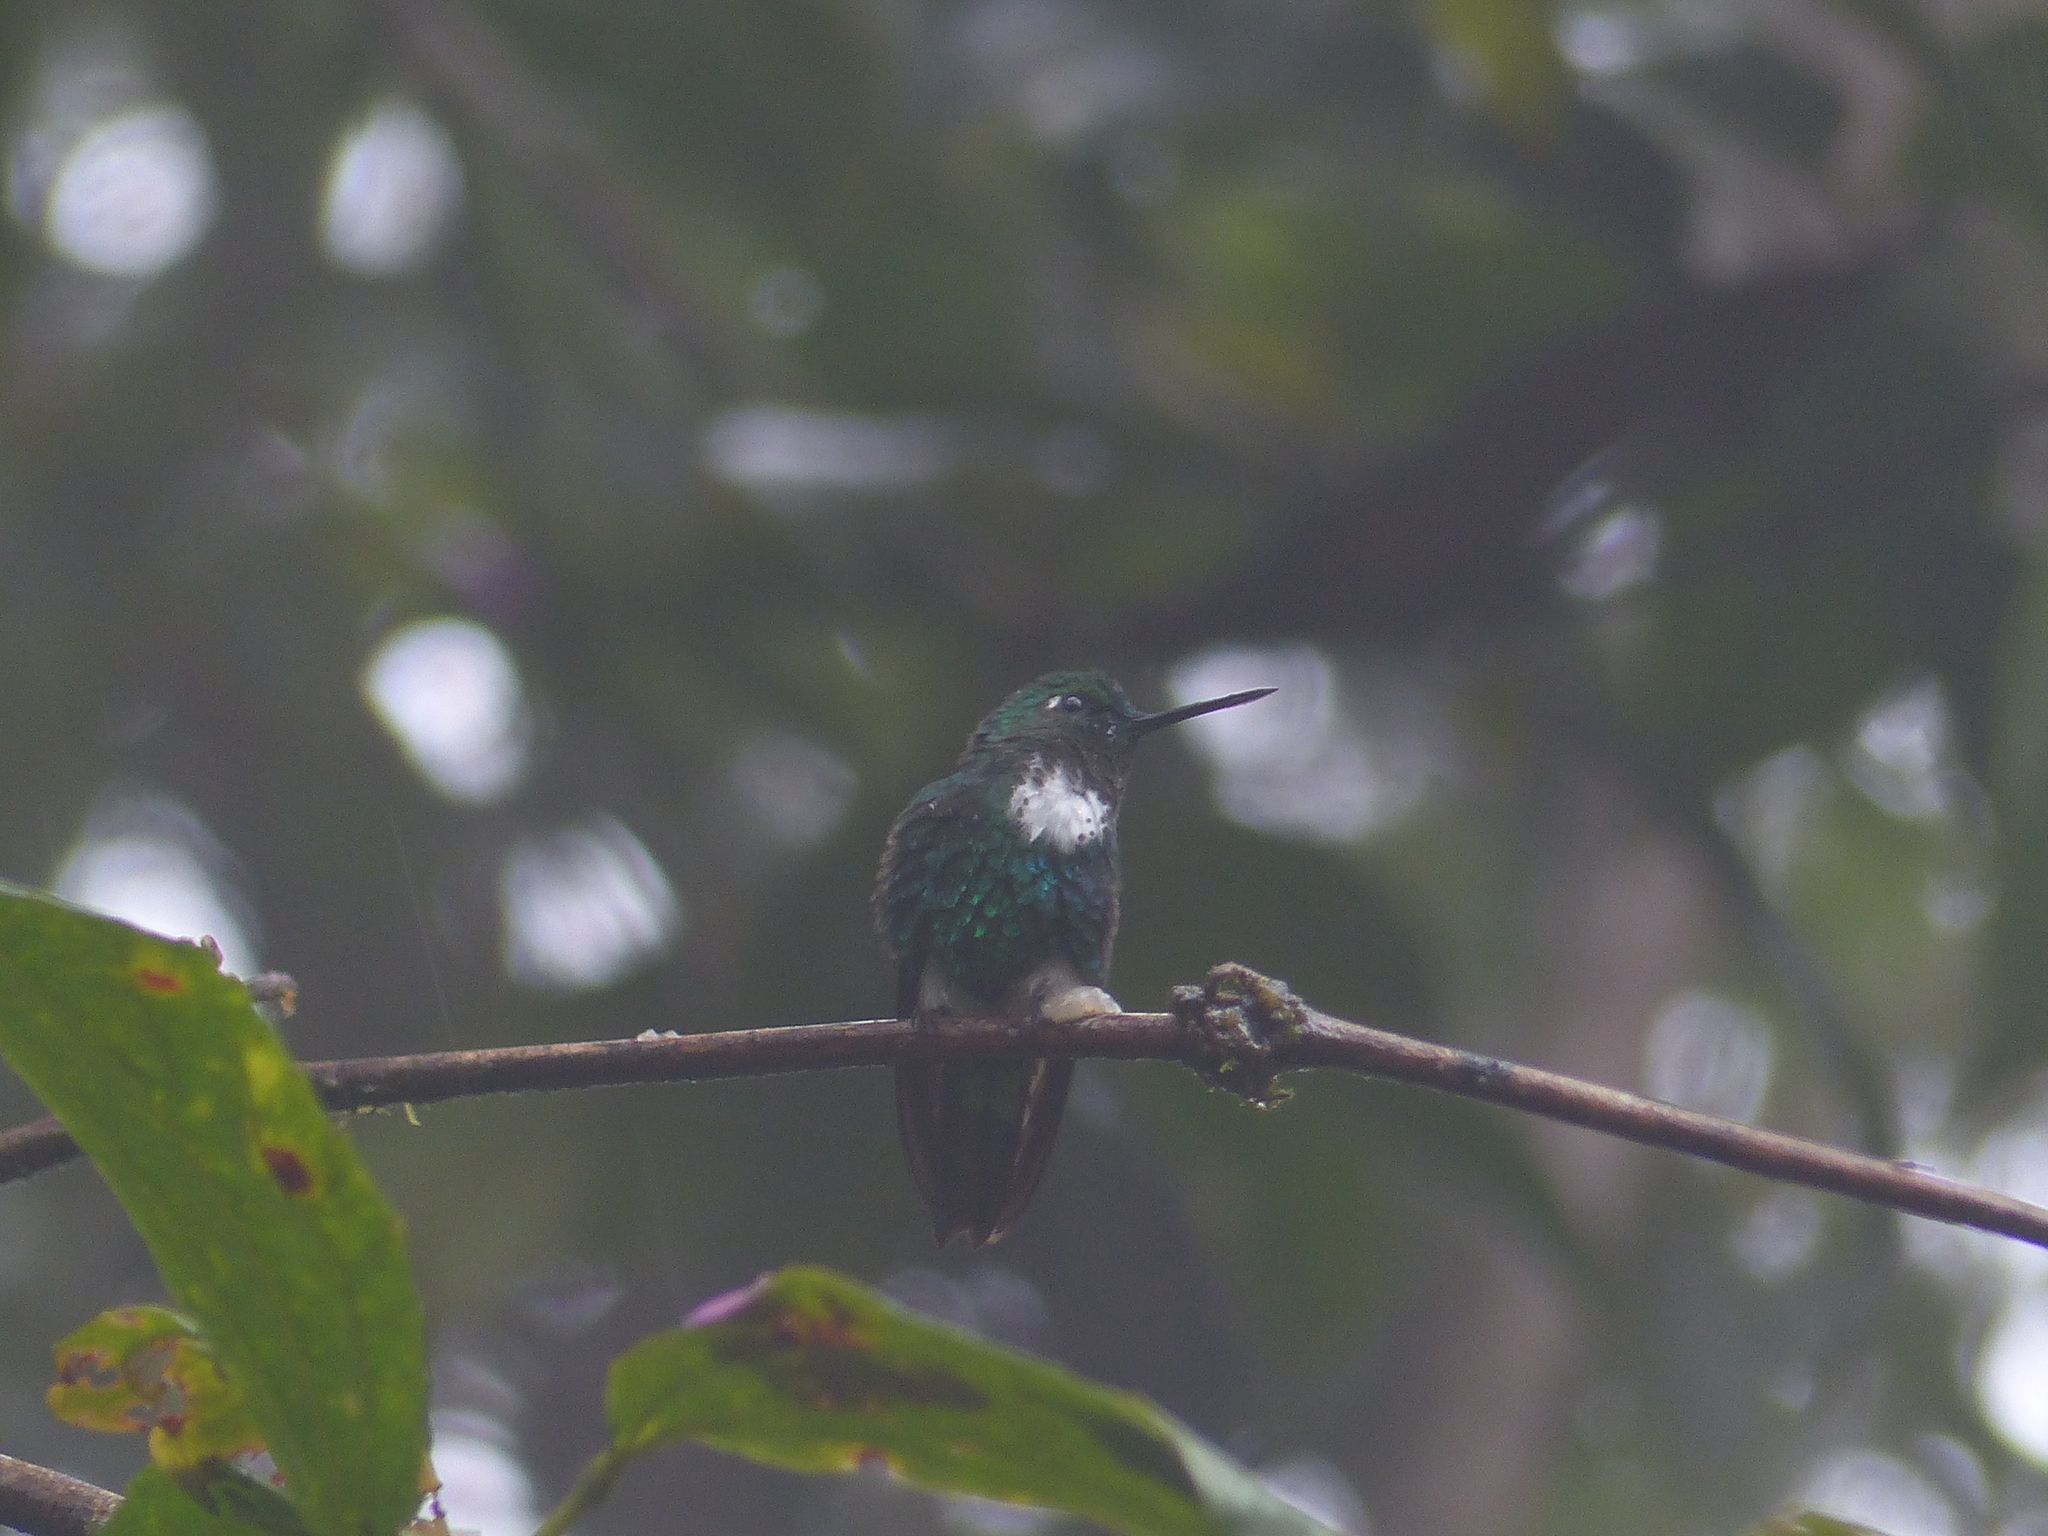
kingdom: Animalia
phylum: Chordata
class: Aves
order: Apodiformes
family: Trochilidae
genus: Eriocnemis
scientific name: Eriocnemis aline
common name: Emerald-bellied puffleg
